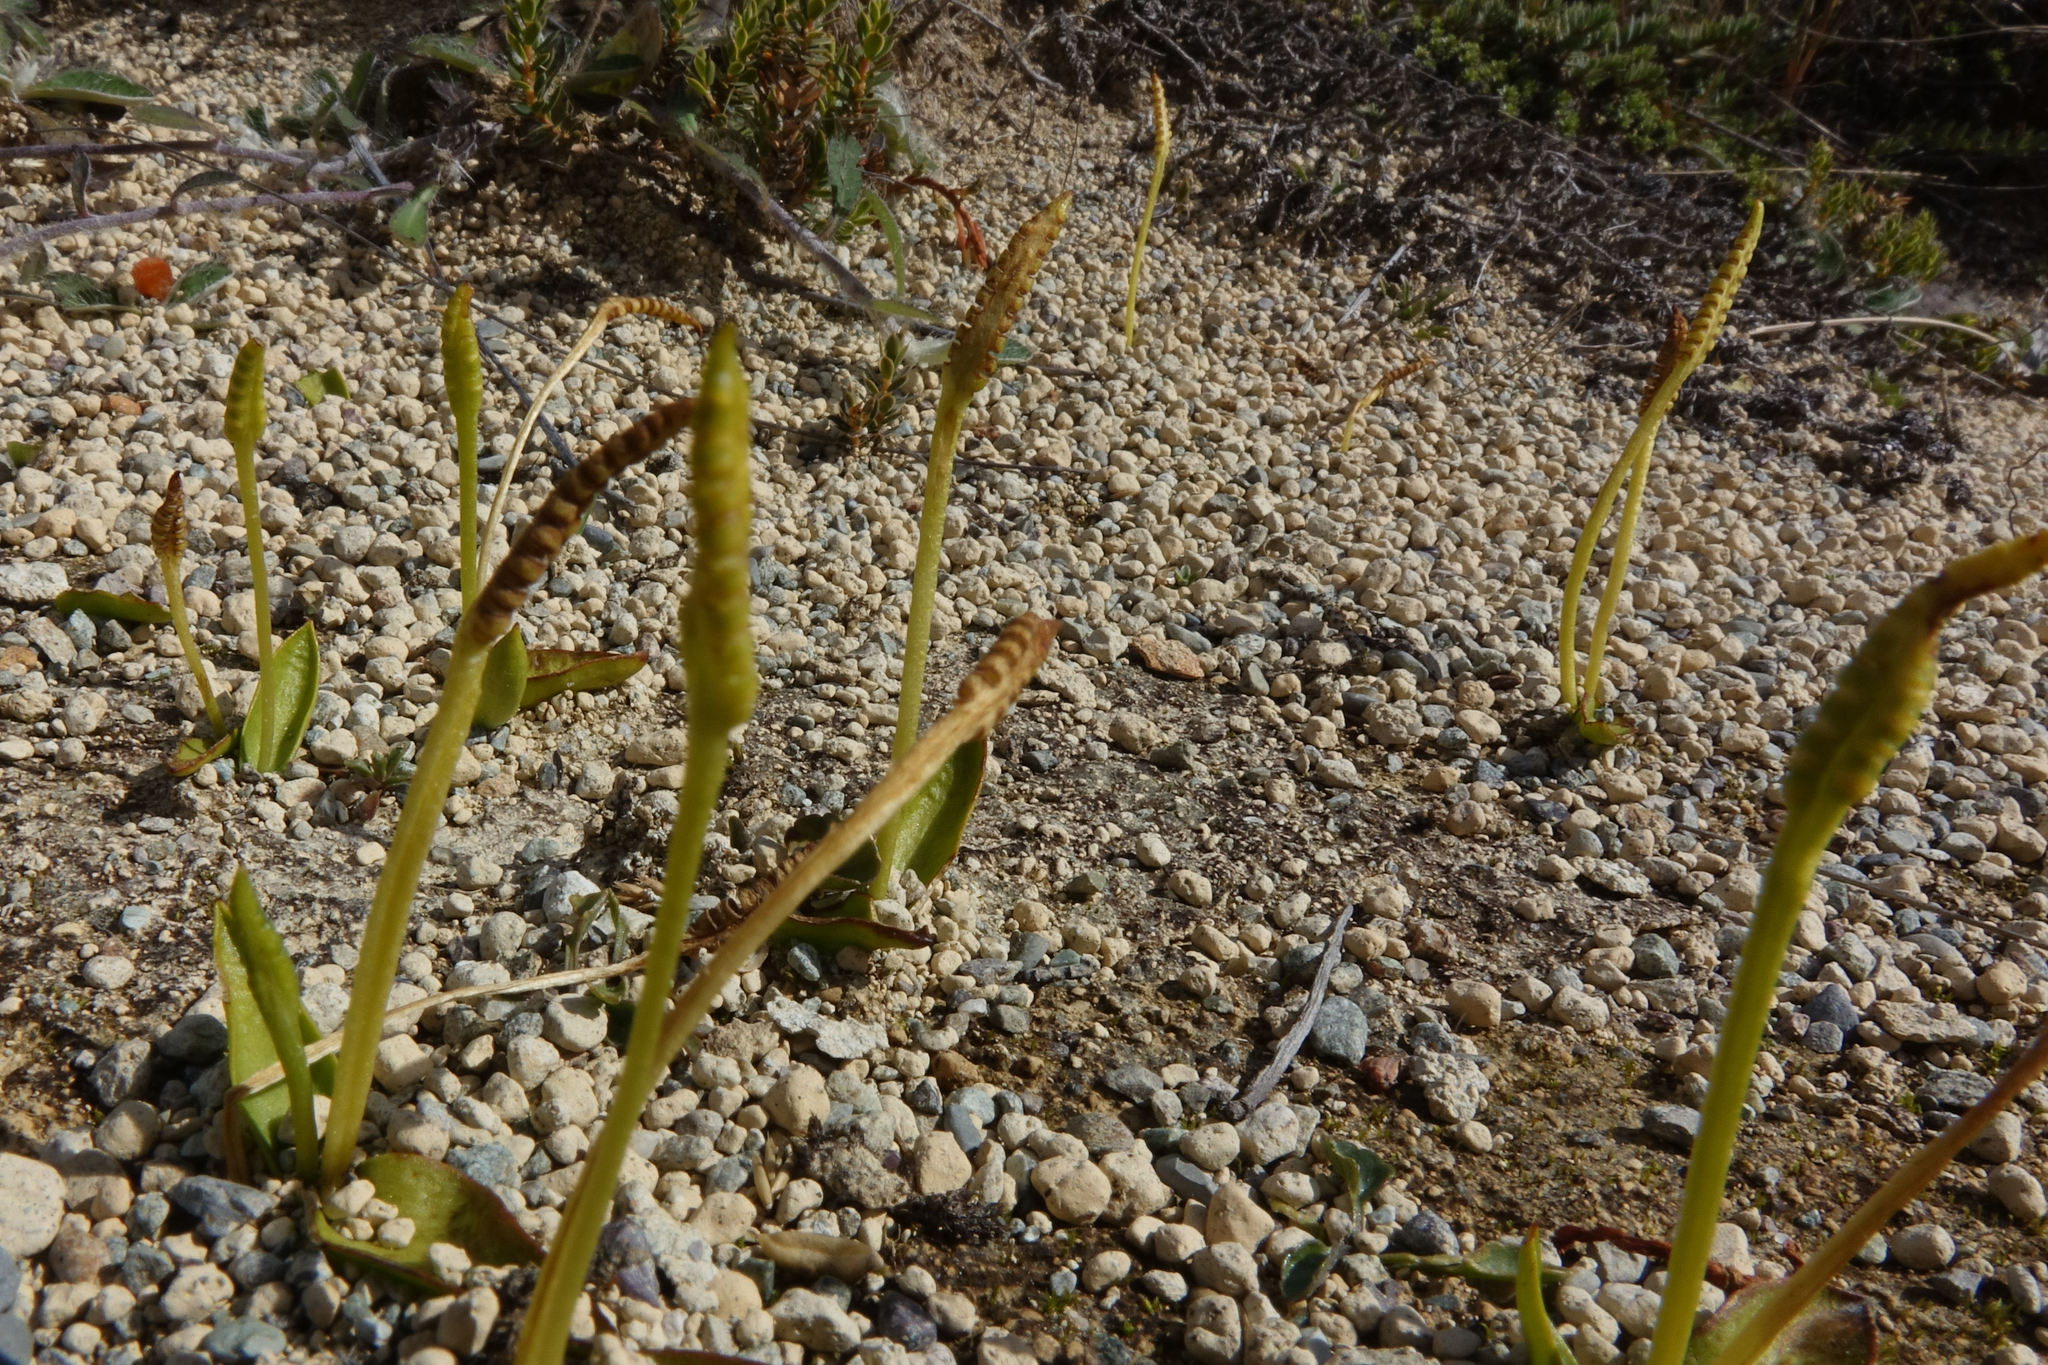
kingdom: Plantae
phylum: Tracheophyta
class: Polypodiopsida
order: Ophioglossales
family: Ophioglossaceae
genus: Ophioglossum
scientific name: Ophioglossum coriaceum
